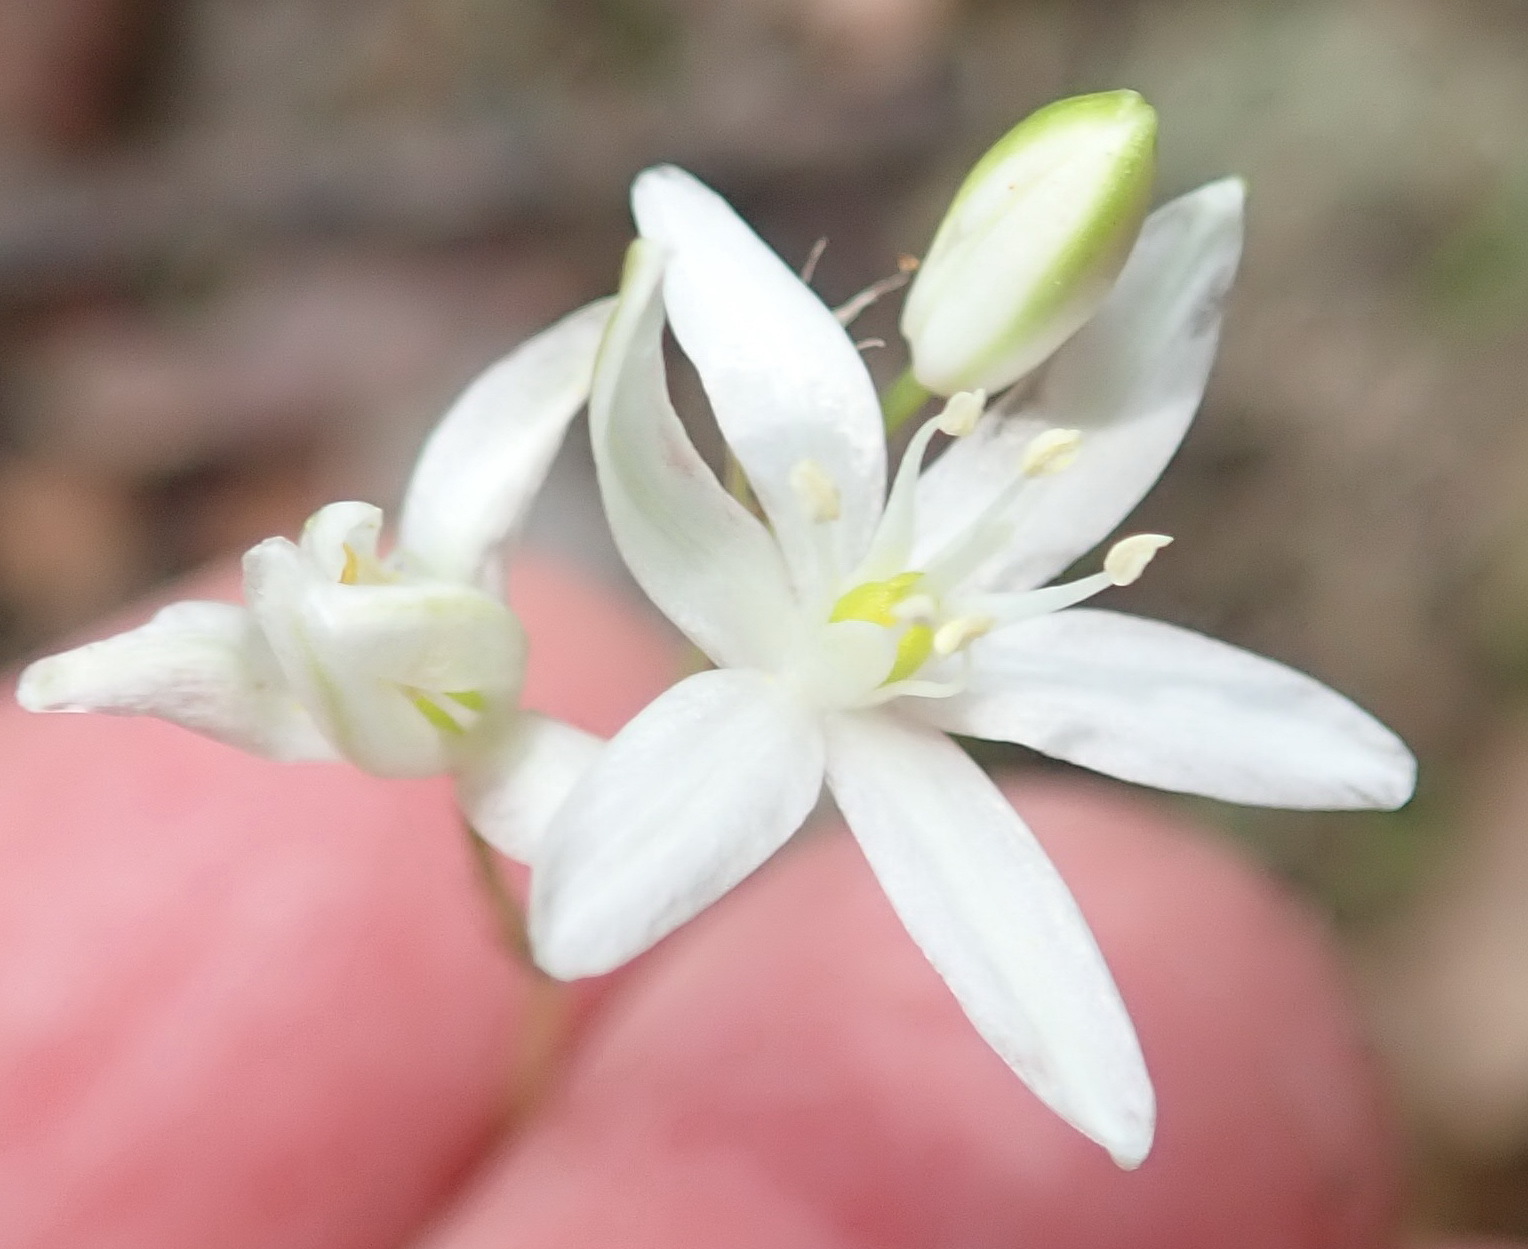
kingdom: Plantae
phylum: Tracheophyta
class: Liliopsida
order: Asparagales
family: Asparagaceae
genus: Ornithogalum
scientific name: Ornithogalum rogersii
